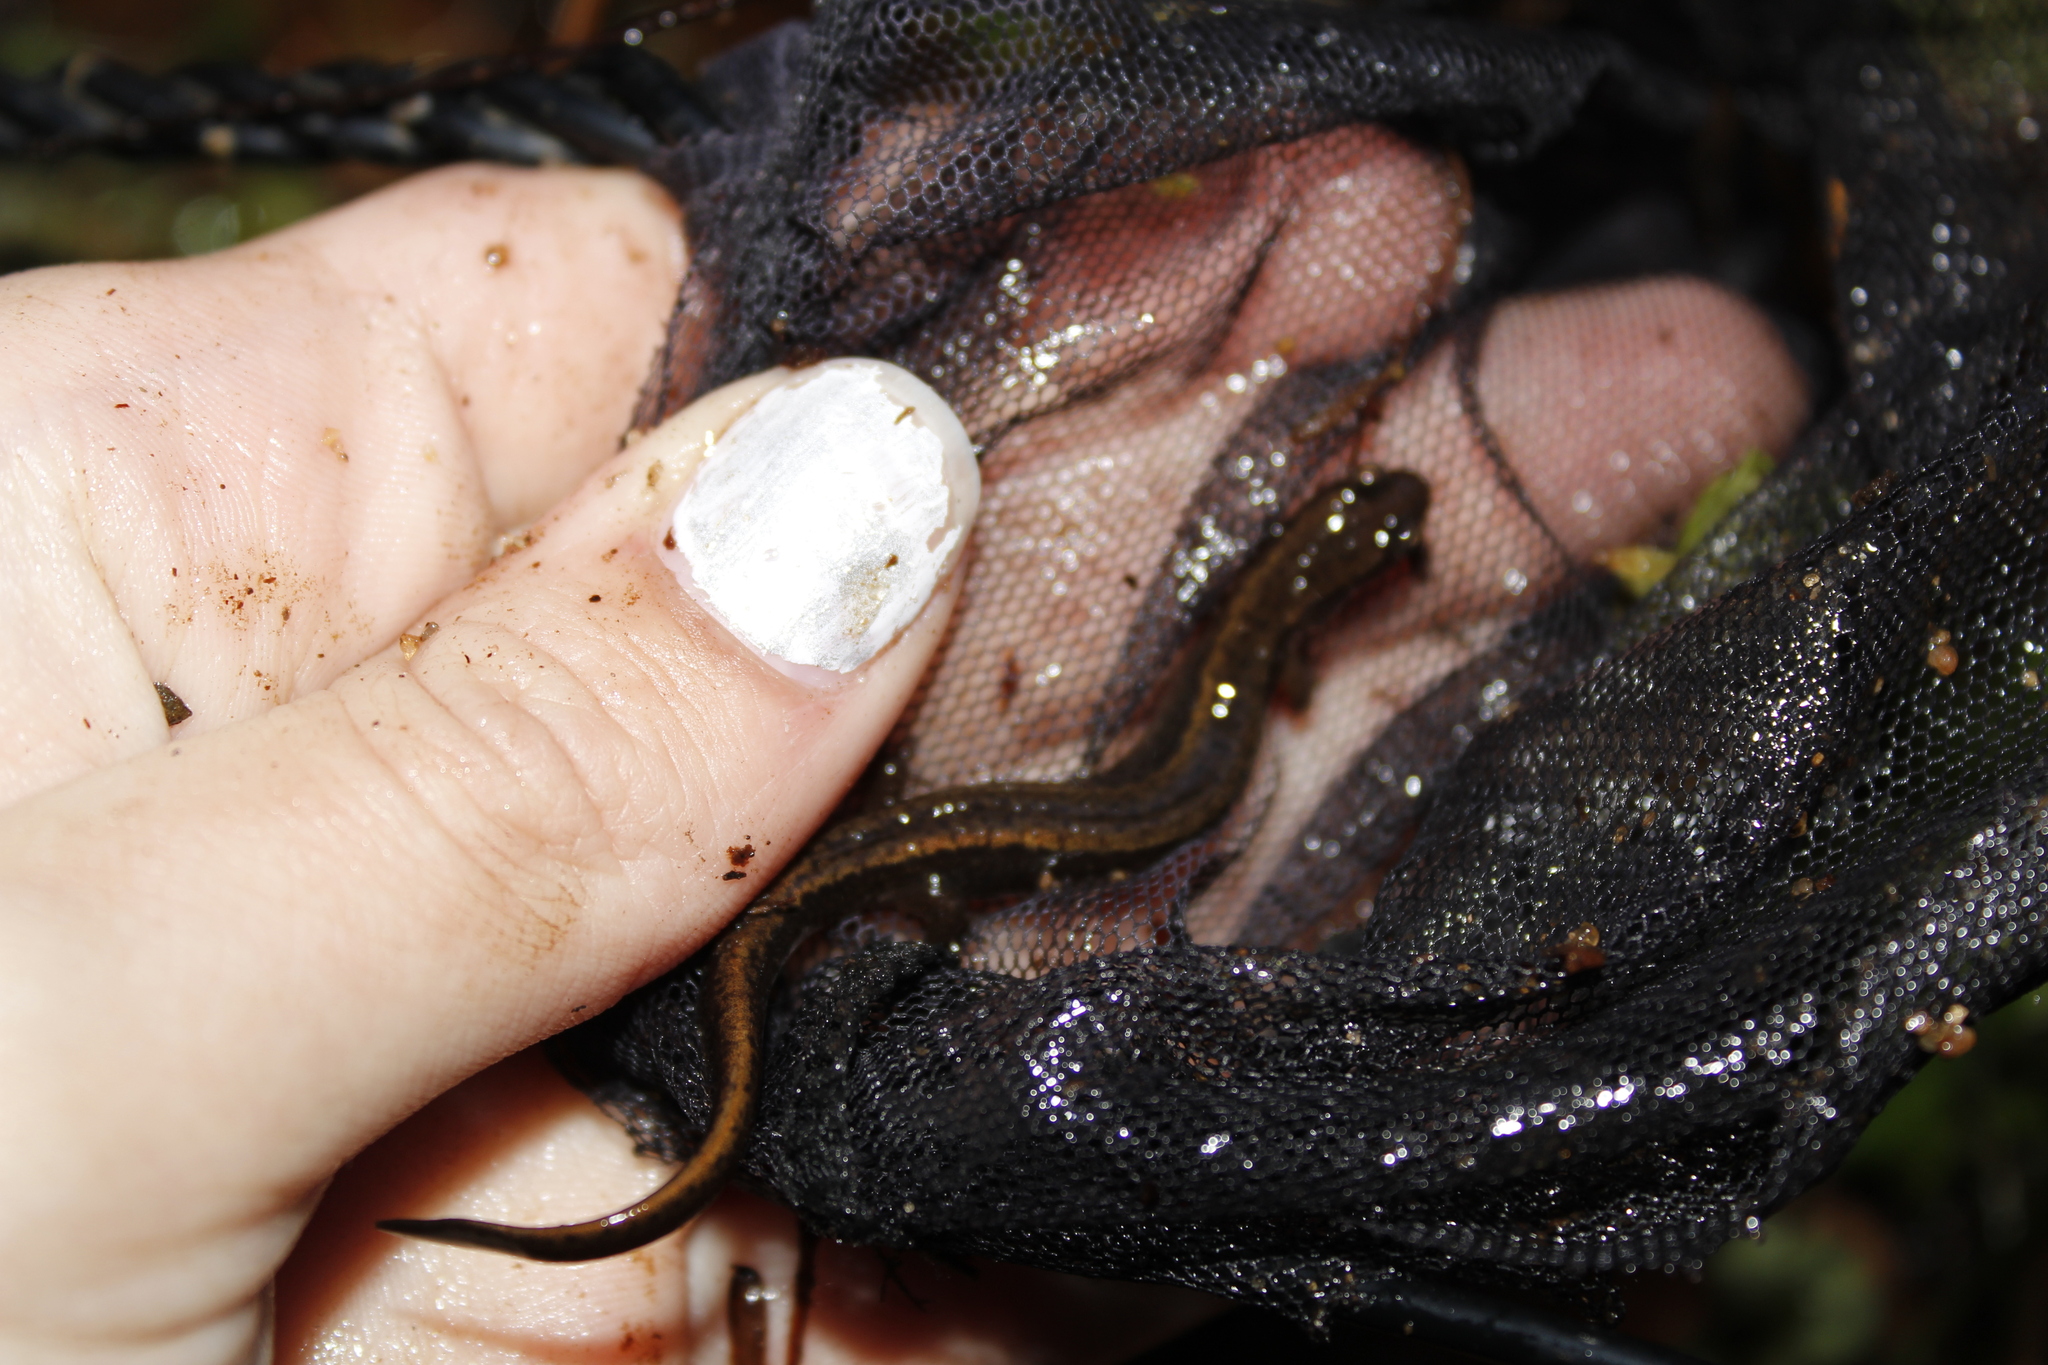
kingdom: Animalia
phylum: Chordata
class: Amphibia
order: Caudata
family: Plethodontidae
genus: Eurycea
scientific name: Eurycea bislineata
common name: Northern two-lined salamander
